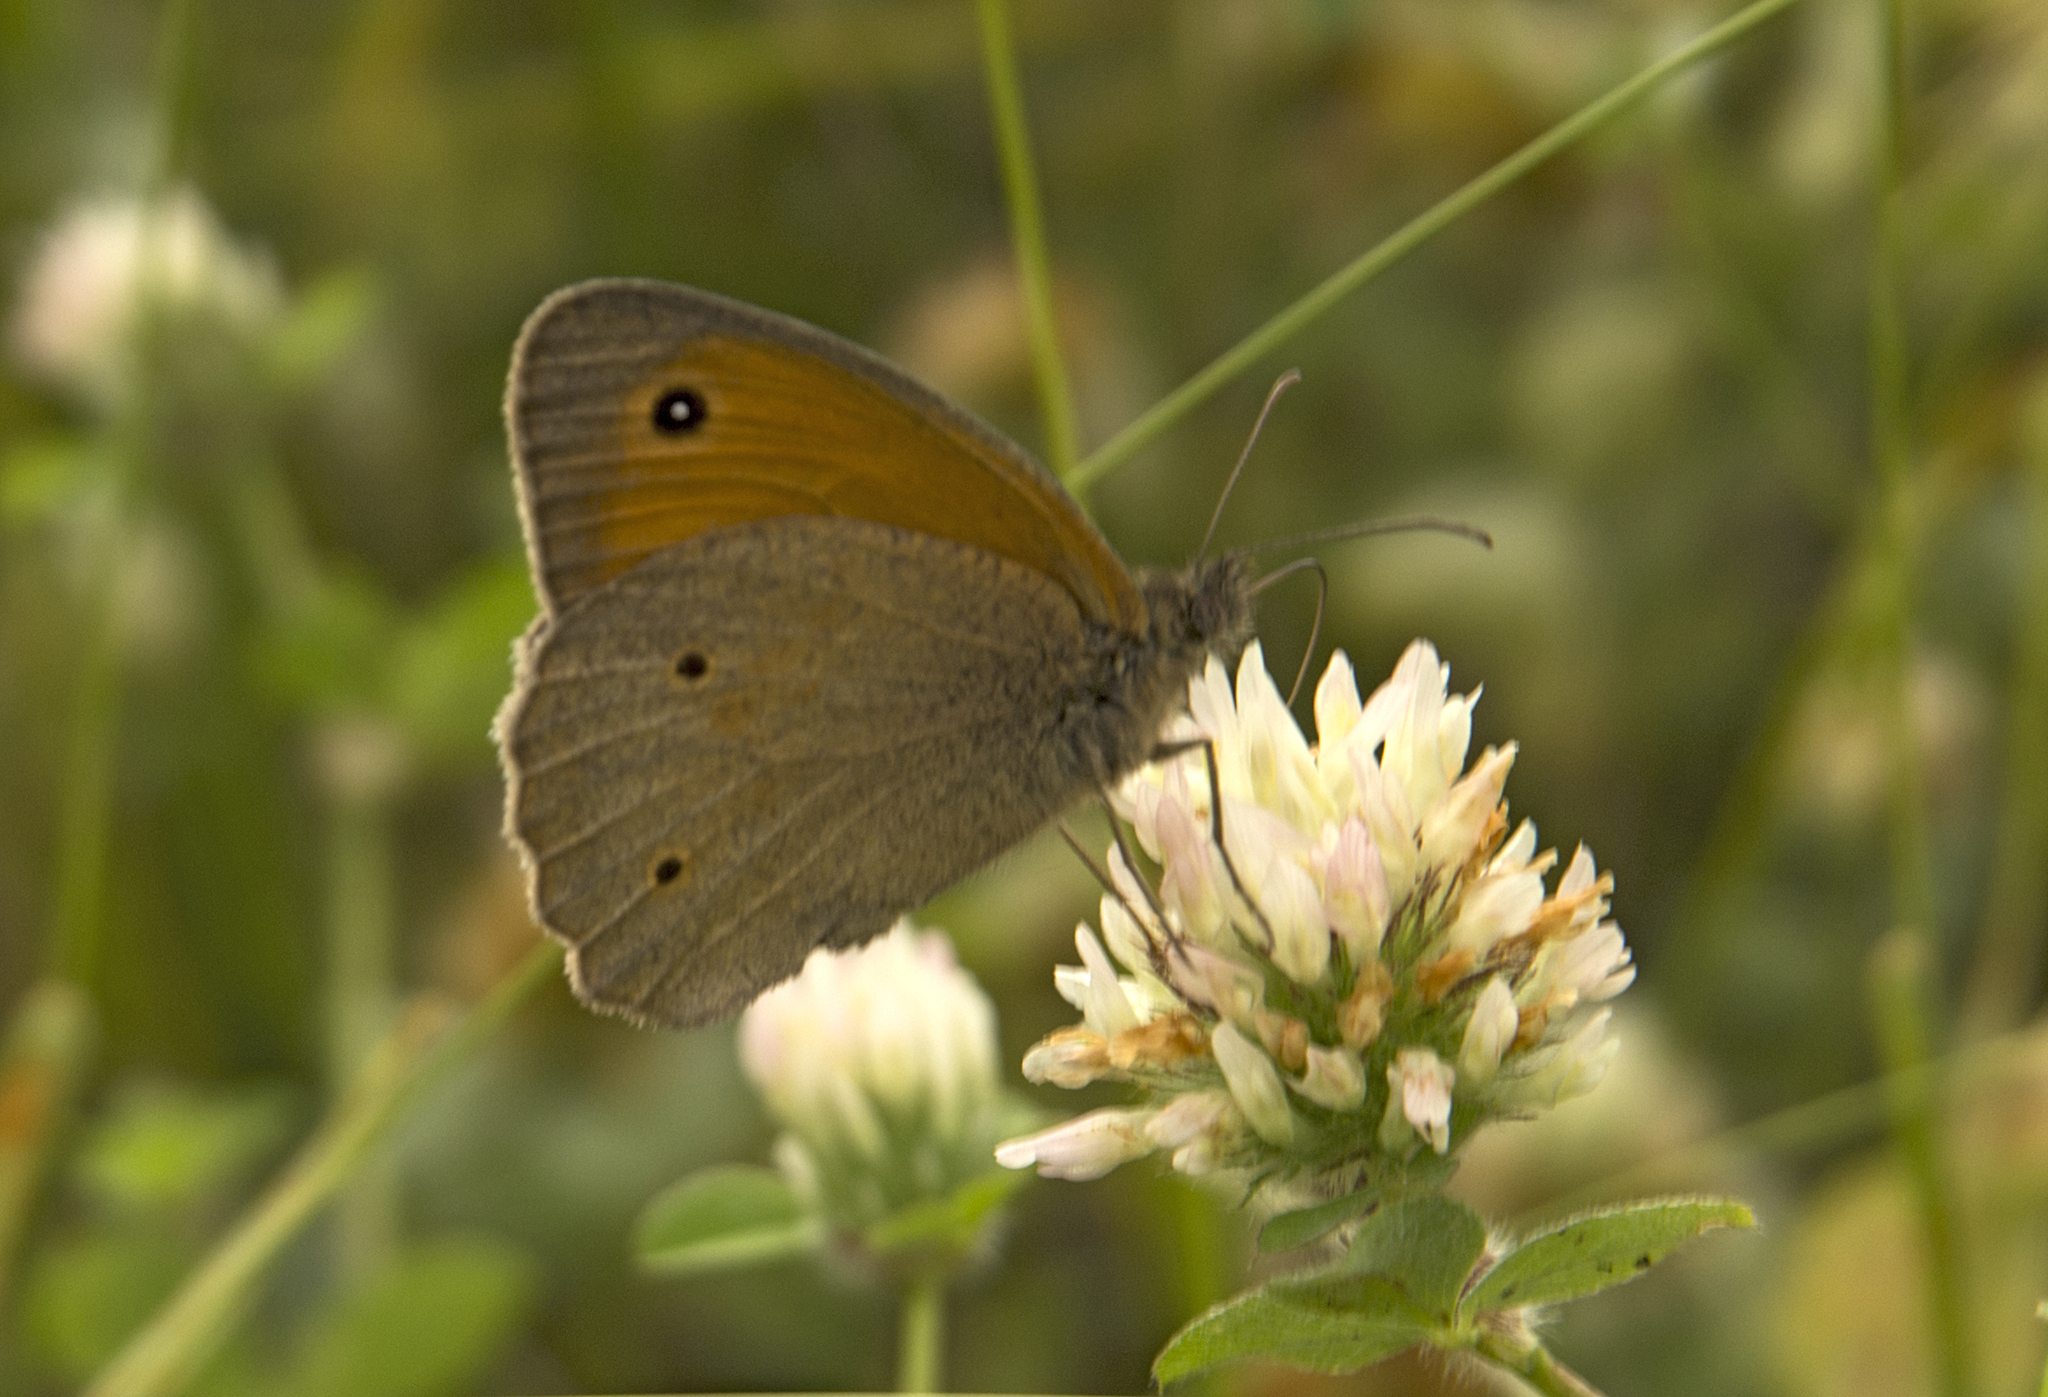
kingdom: Animalia
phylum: Arthropoda
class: Insecta
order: Lepidoptera
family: Nymphalidae
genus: Maniola
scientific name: Maniola jurtina
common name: Meadow brown
